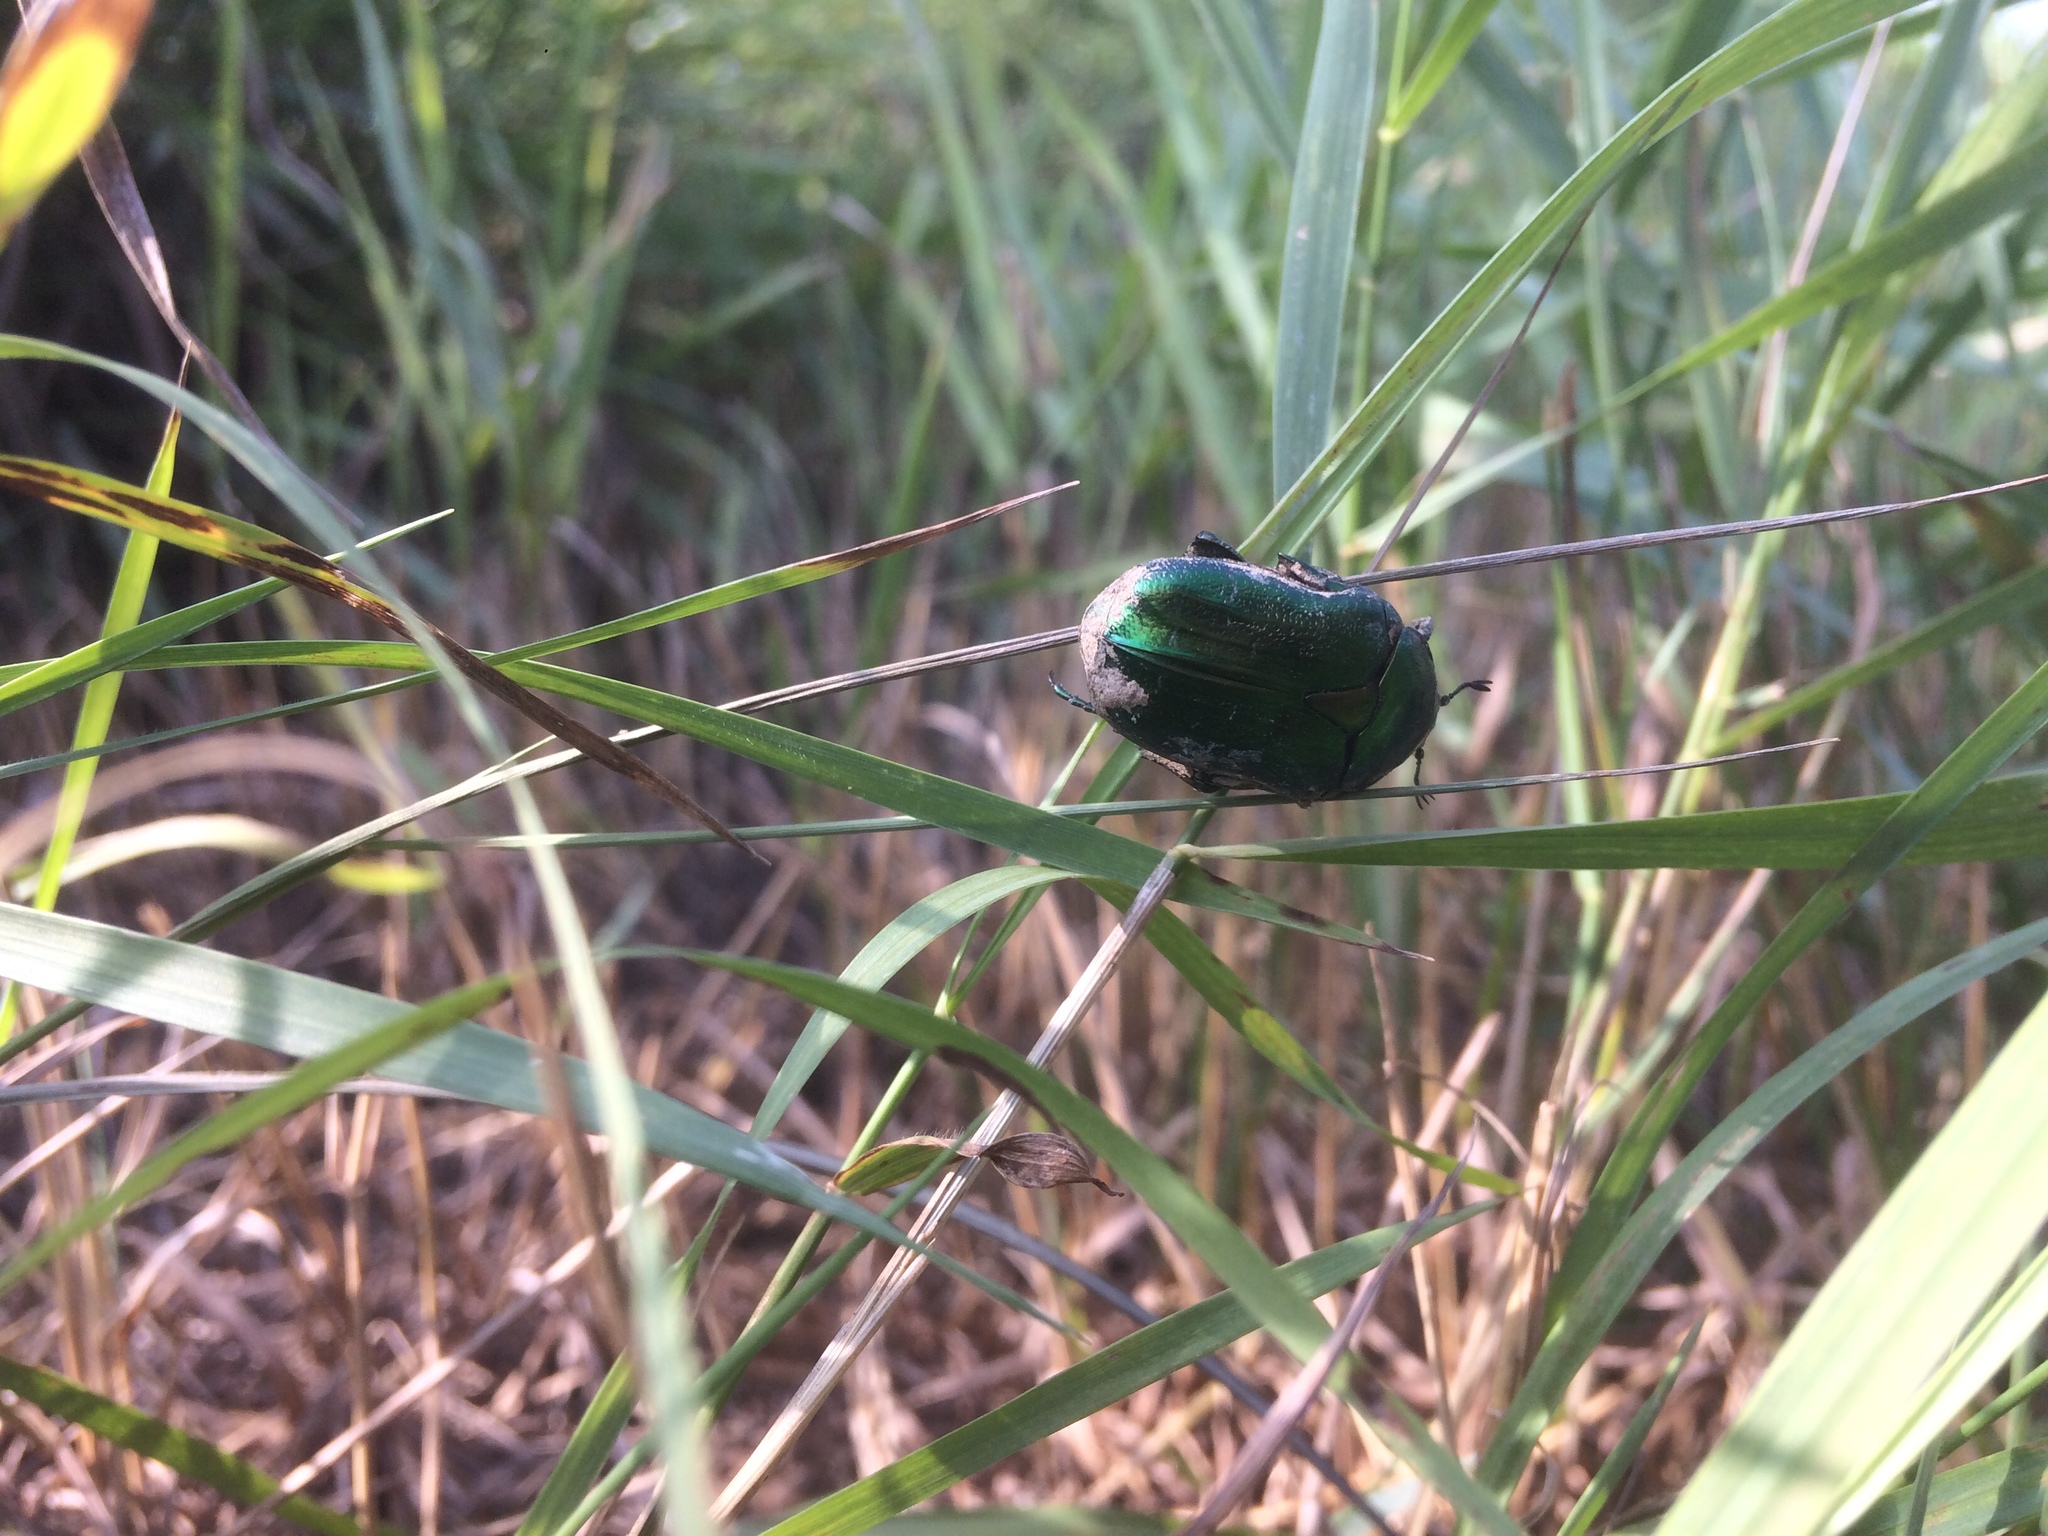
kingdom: Animalia
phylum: Arthropoda
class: Insecta
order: Coleoptera
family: Scarabaeidae
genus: Cetonia
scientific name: Cetonia aurata
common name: Rose chafer
